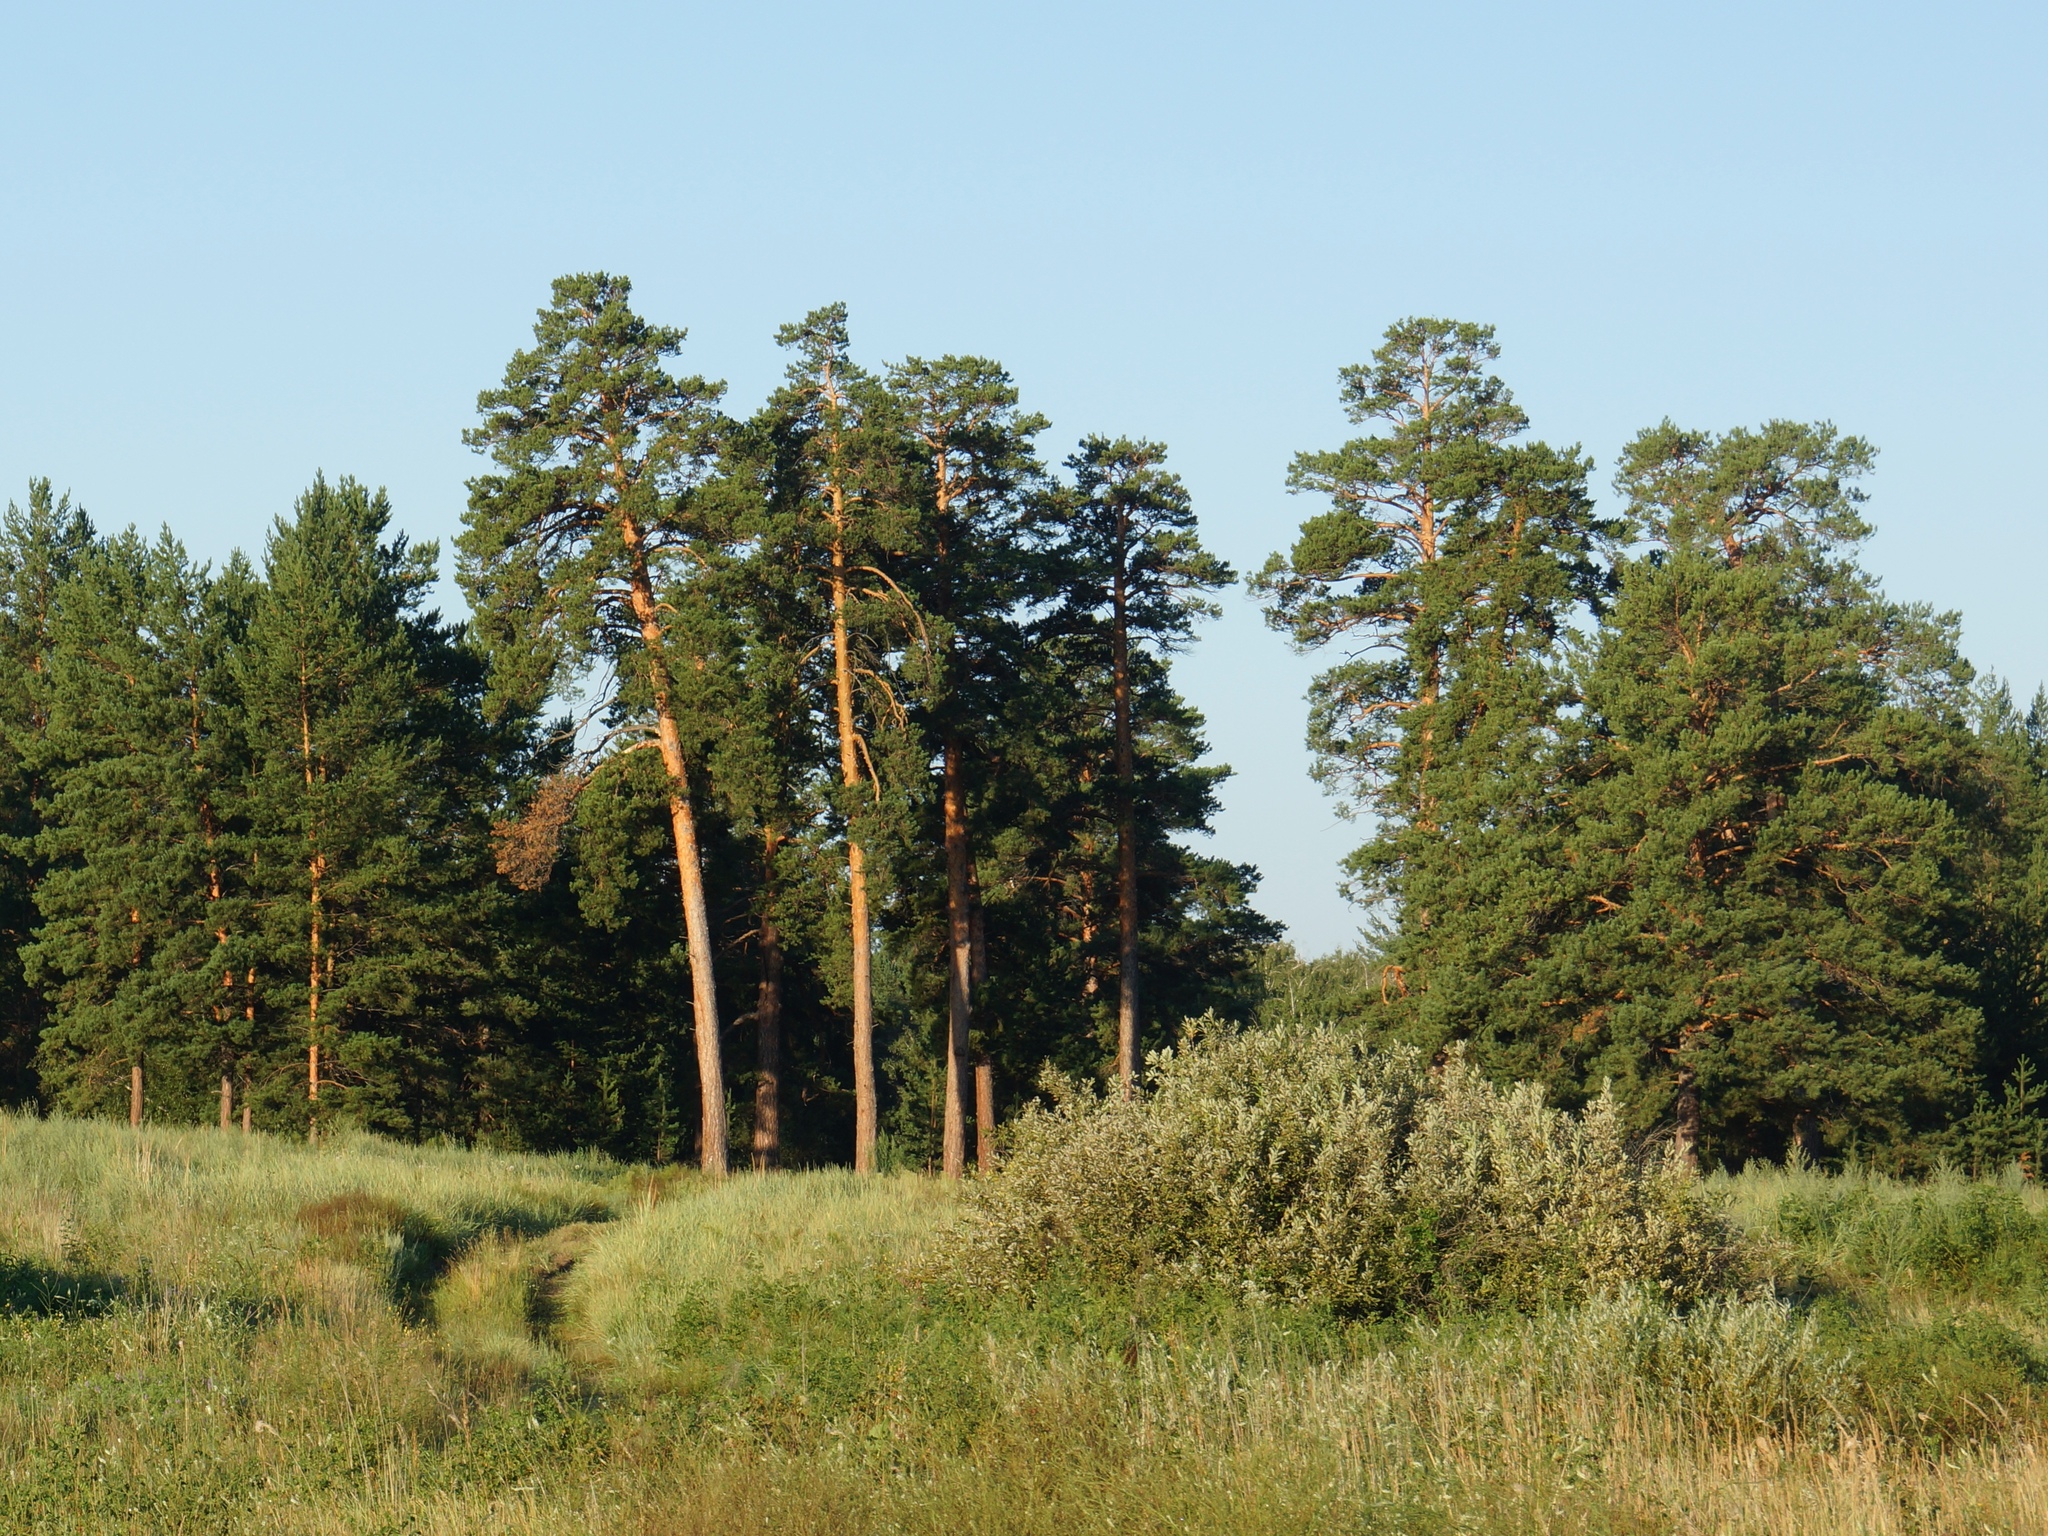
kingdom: Plantae
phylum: Tracheophyta
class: Pinopsida
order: Pinales
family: Pinaceae
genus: Pinus
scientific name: Pinus sylvestris
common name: Scots pine
